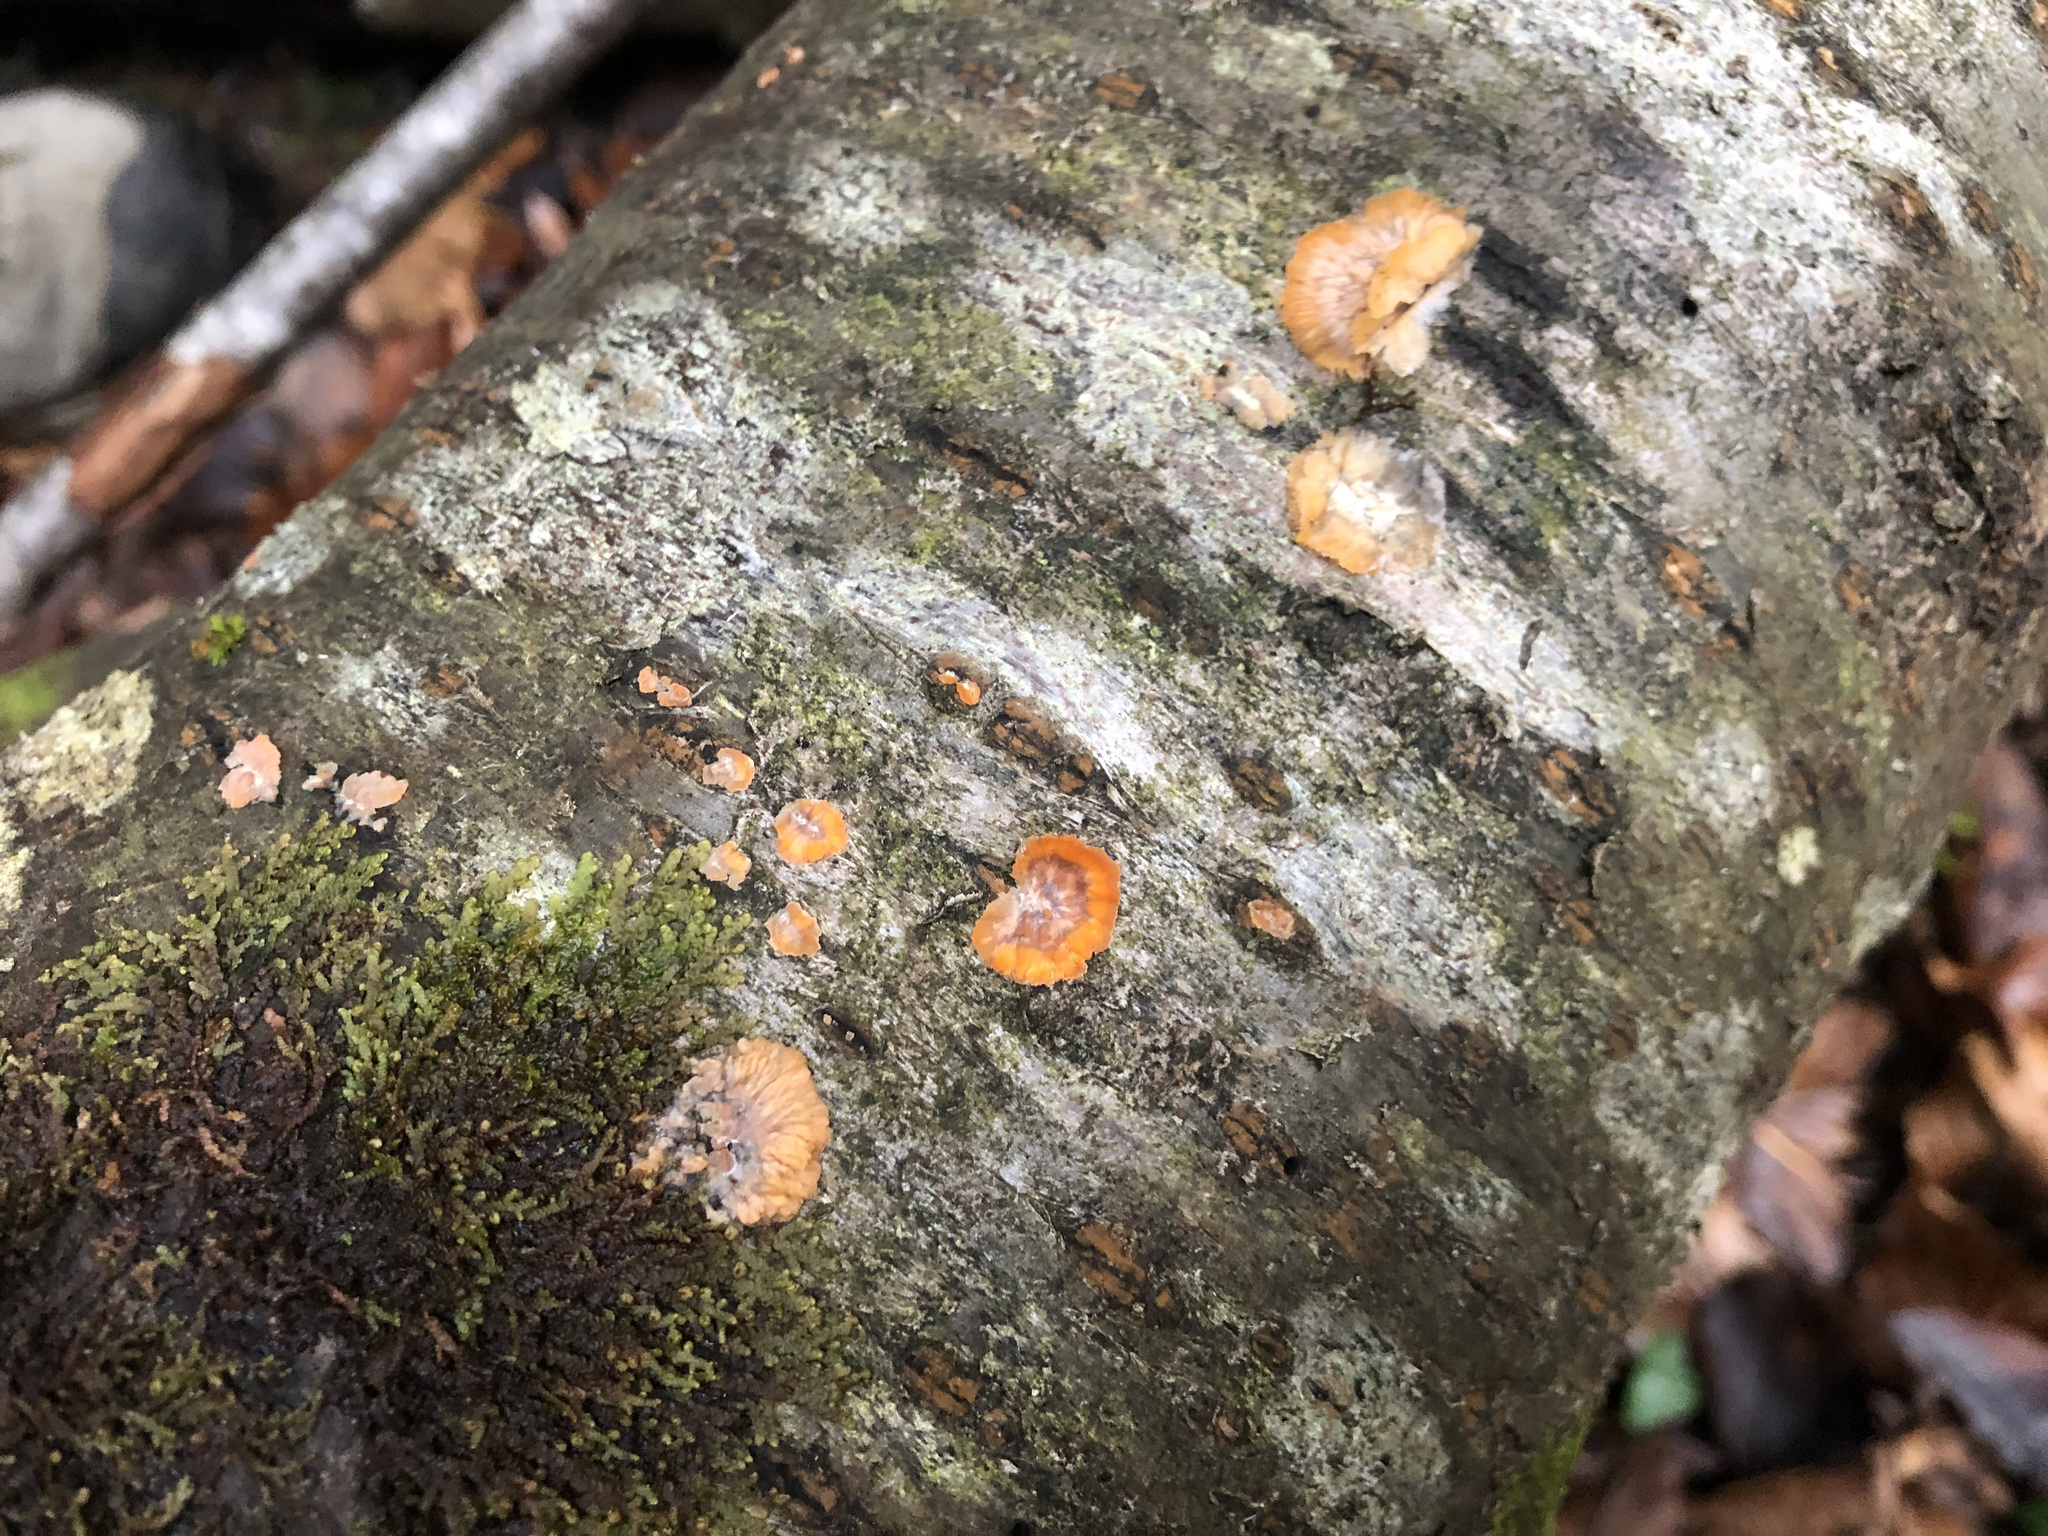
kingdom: Fungi
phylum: Basidiomycota
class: Agaricomycetes
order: Polyporales
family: Meruliaceae
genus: Phlebia
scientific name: Phlebia radiata
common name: Wrinkled crust
